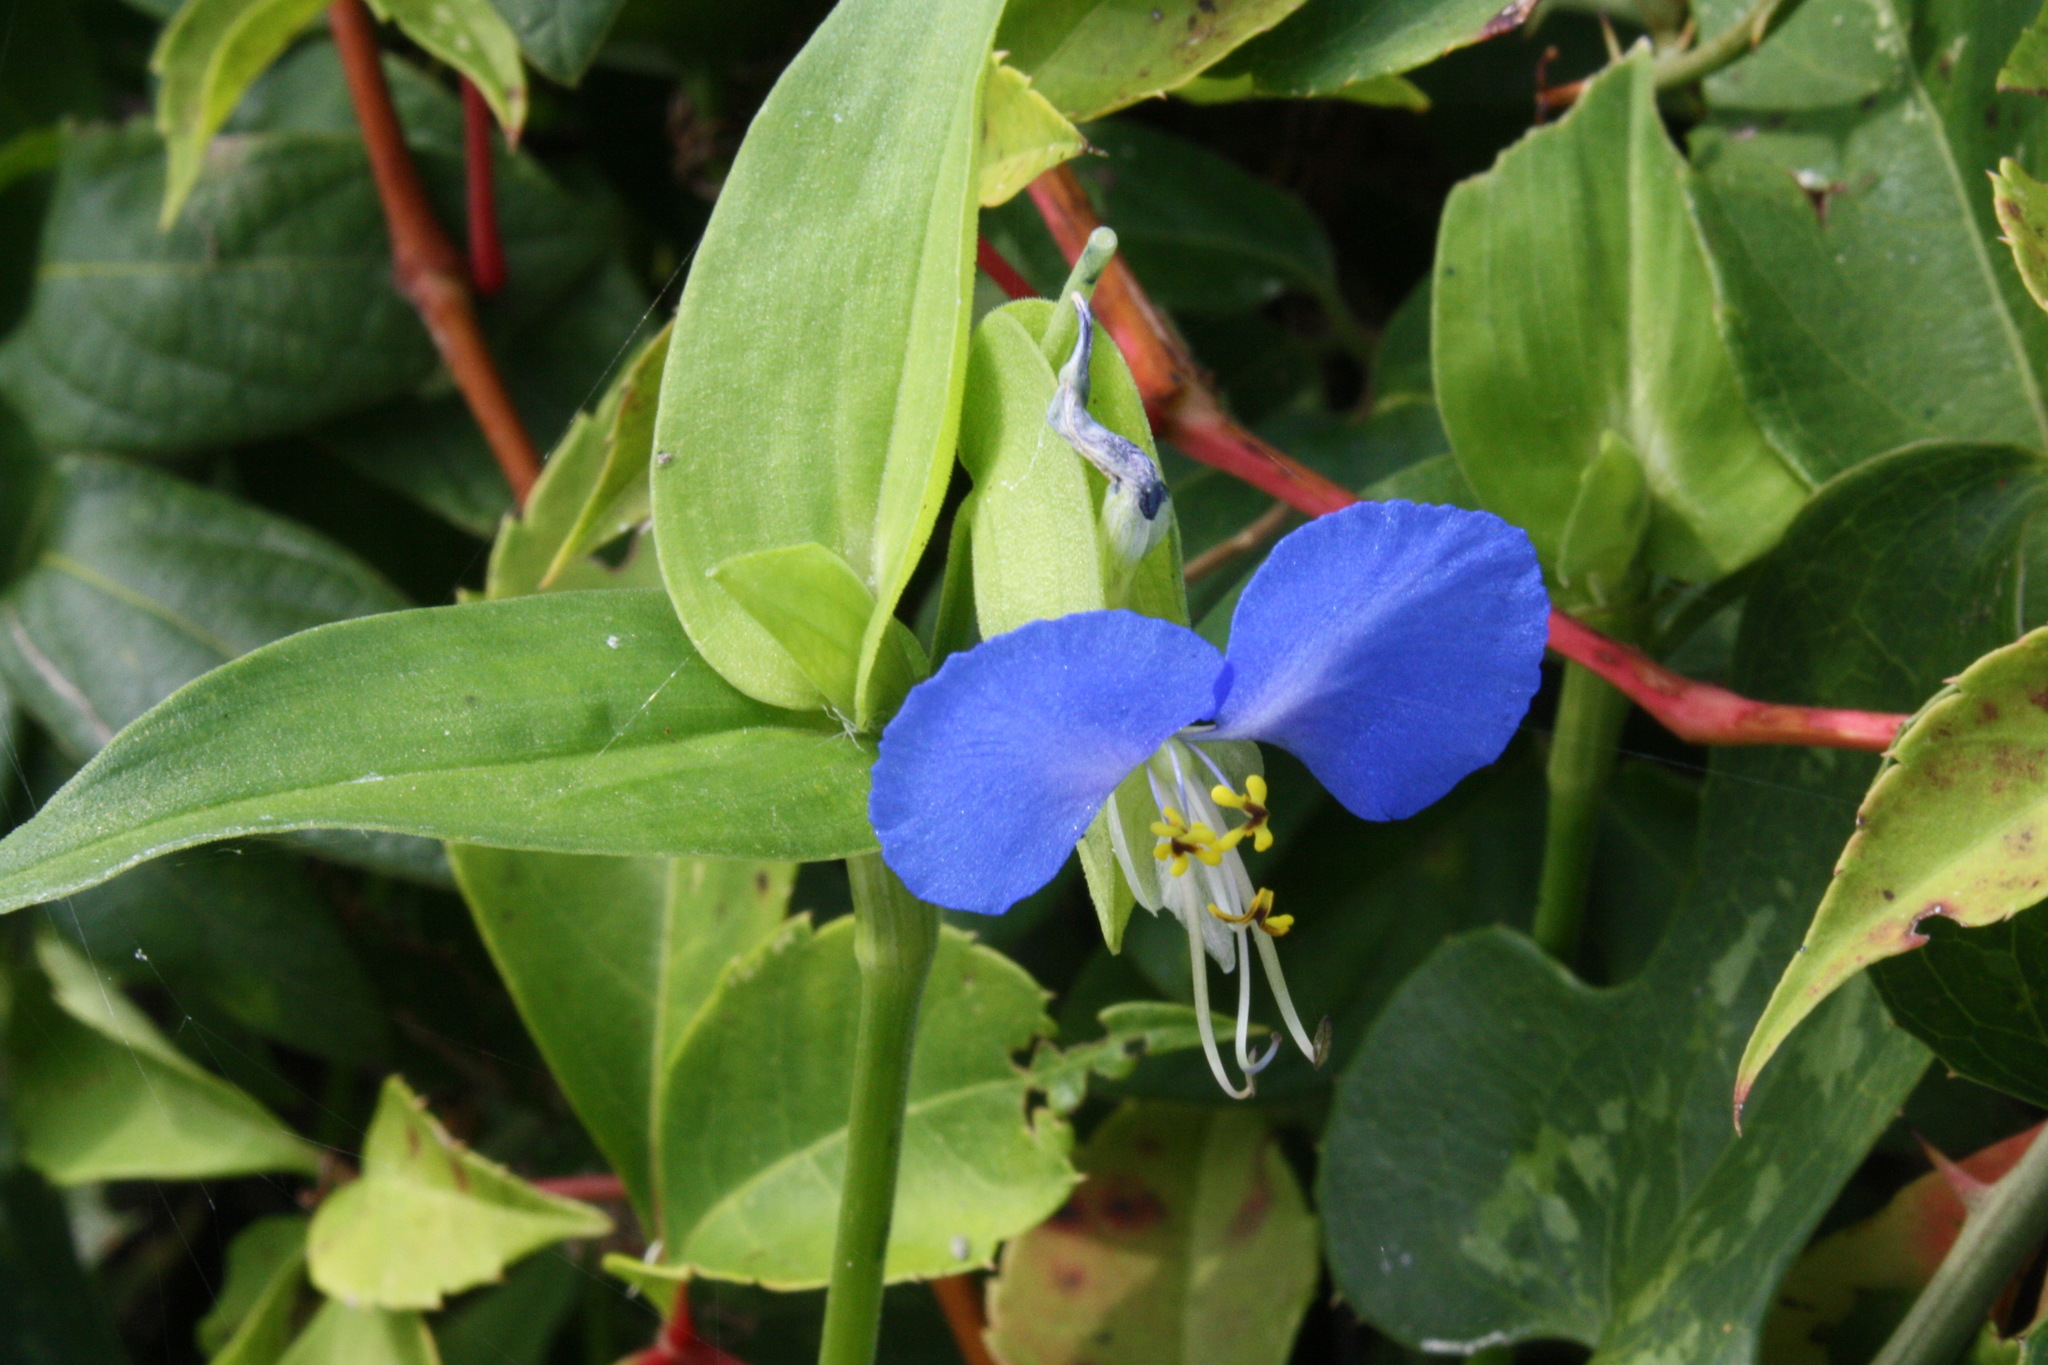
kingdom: Plantae
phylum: Tracheophyta
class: Liliopsida
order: Commelinales
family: Commelinaceae
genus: Commelina
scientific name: Commelina communis
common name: Asiatic dayflower
